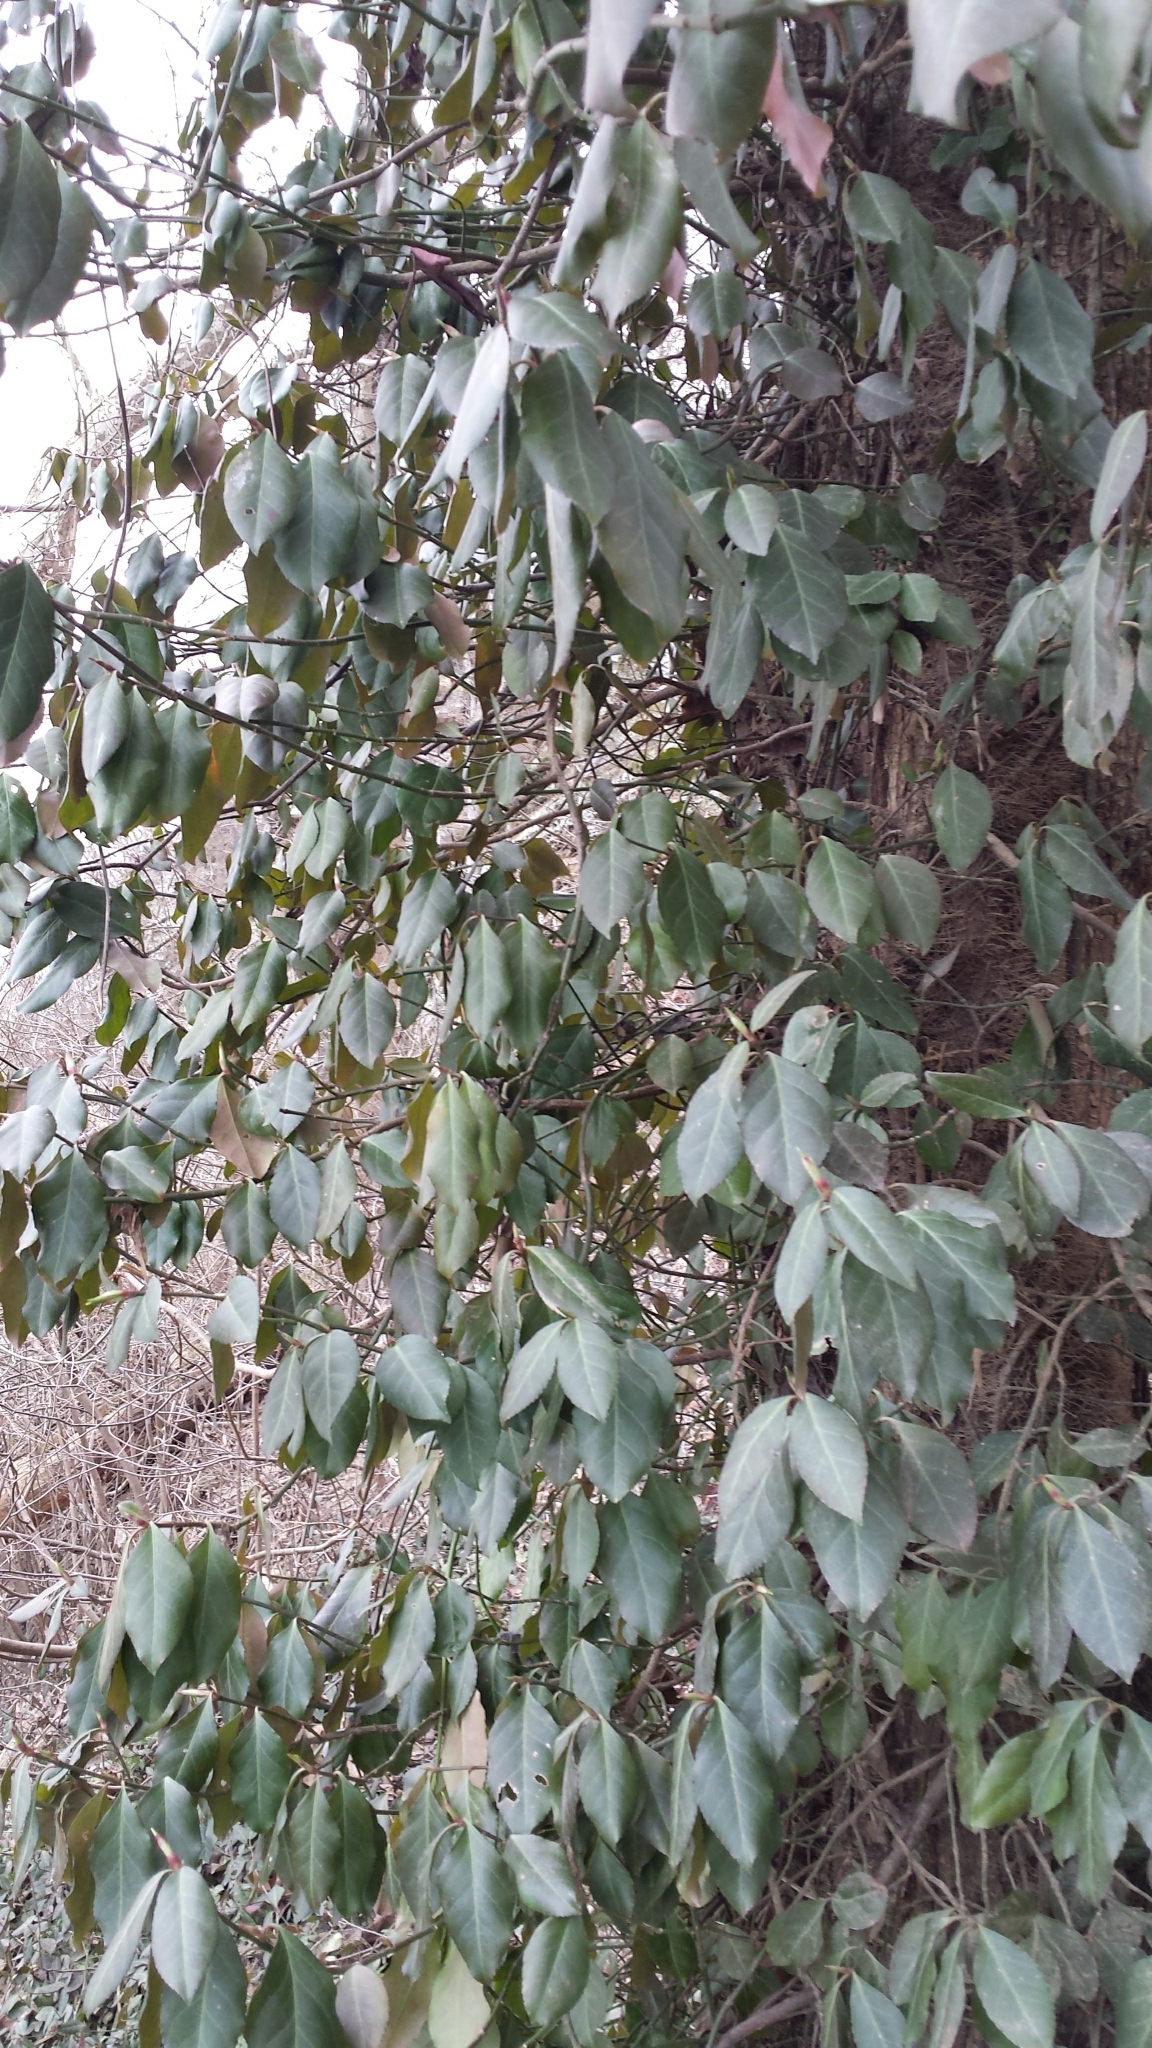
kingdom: Plantae
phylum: Tracheophyta
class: Magnoliopsida
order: Celastrales
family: Celastraceae
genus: Euonymus
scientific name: Euonymus fortunei
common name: Climbing euonymus
